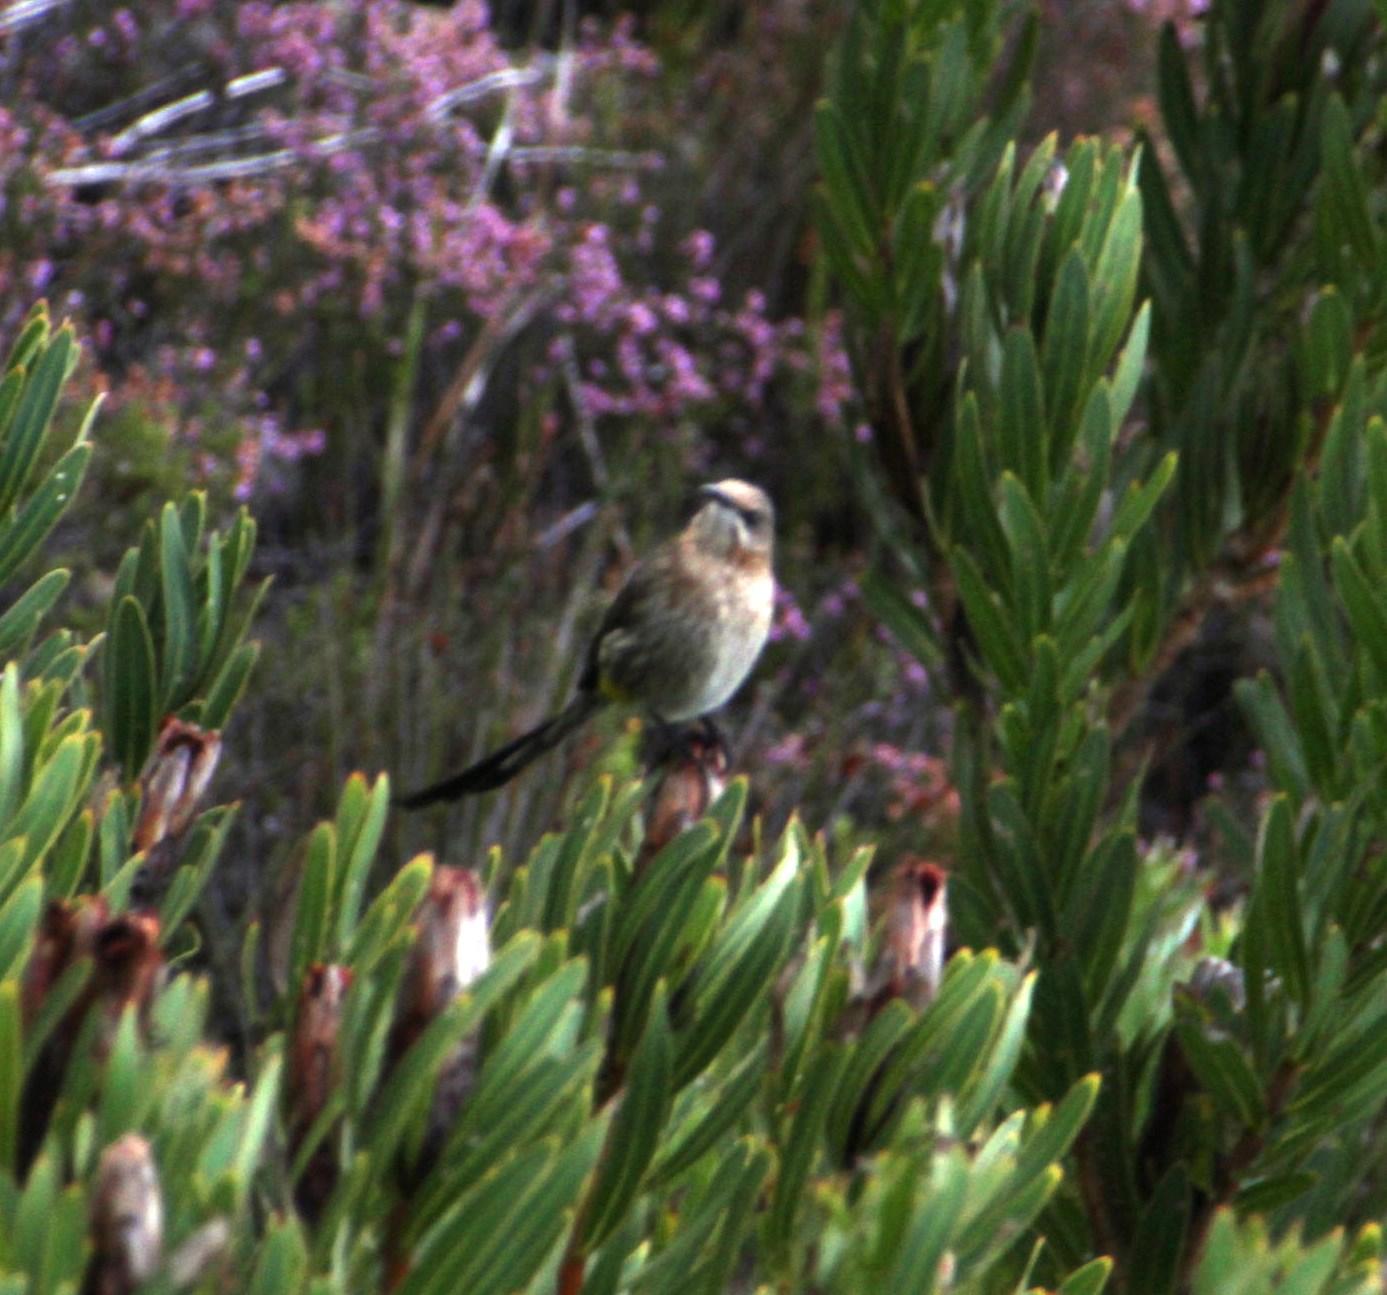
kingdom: Animalia
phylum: Chordata
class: Aves
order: Passeriformes
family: Promeropidae
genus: Promerops
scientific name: Promerops cafer
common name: Cape sugarbird
